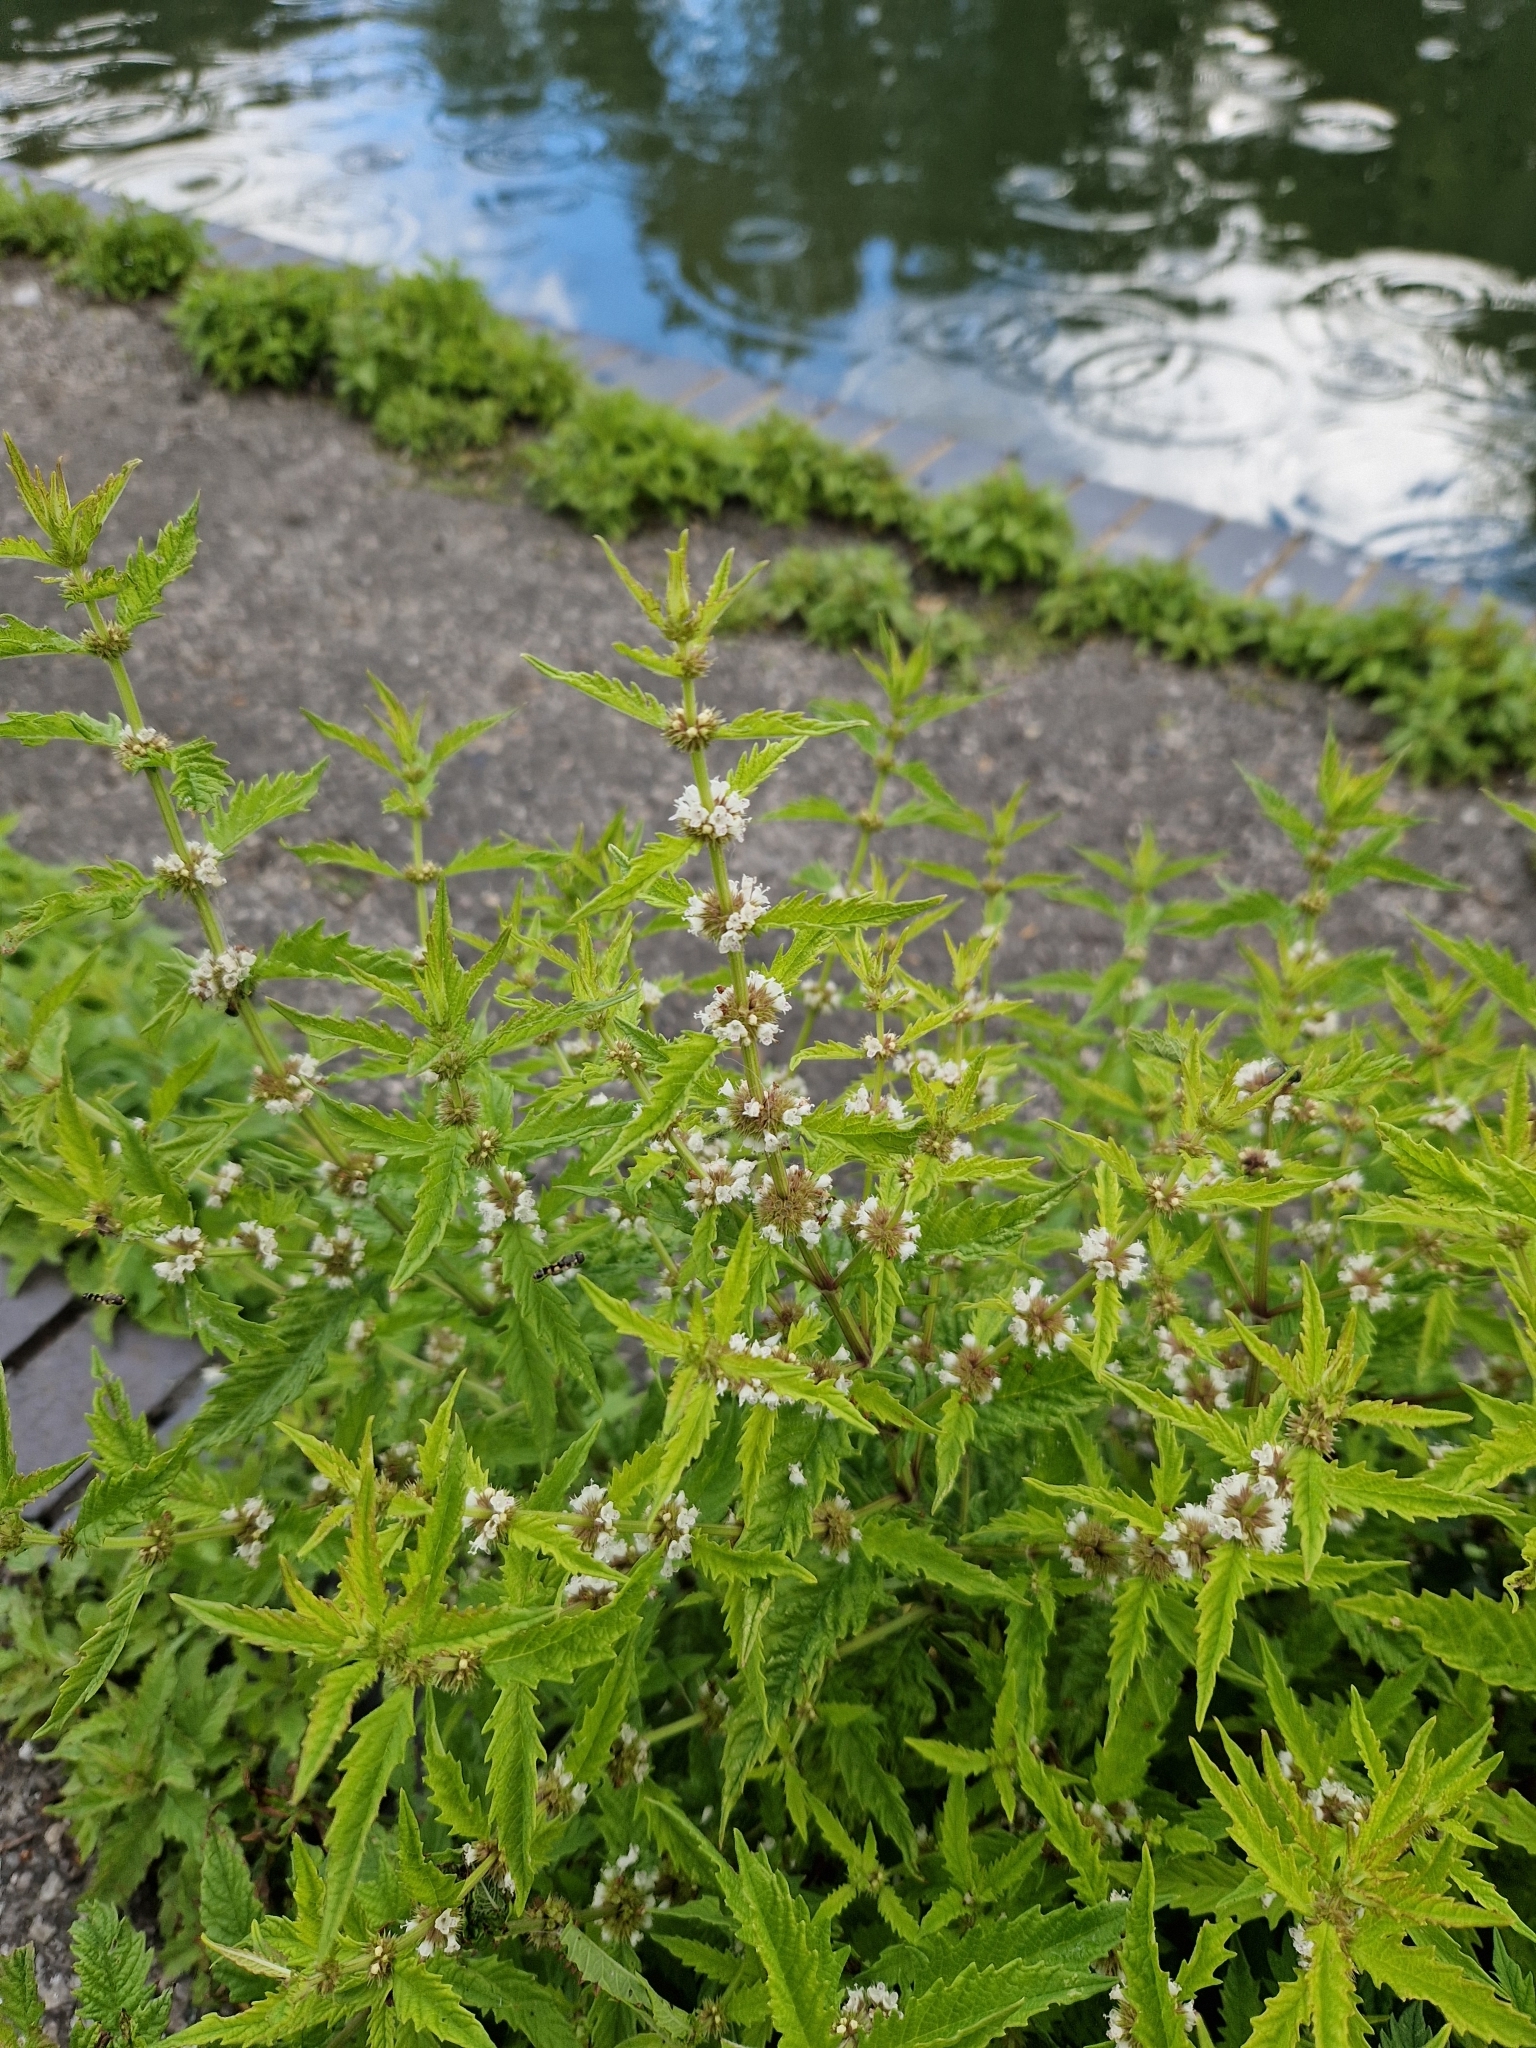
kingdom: Plantae
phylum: Tracheophyta
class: Magnoliopsida
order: Lamiales
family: Lamiaceae
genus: Lycopus
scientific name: Lycopus europaeus
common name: European bugleweed
